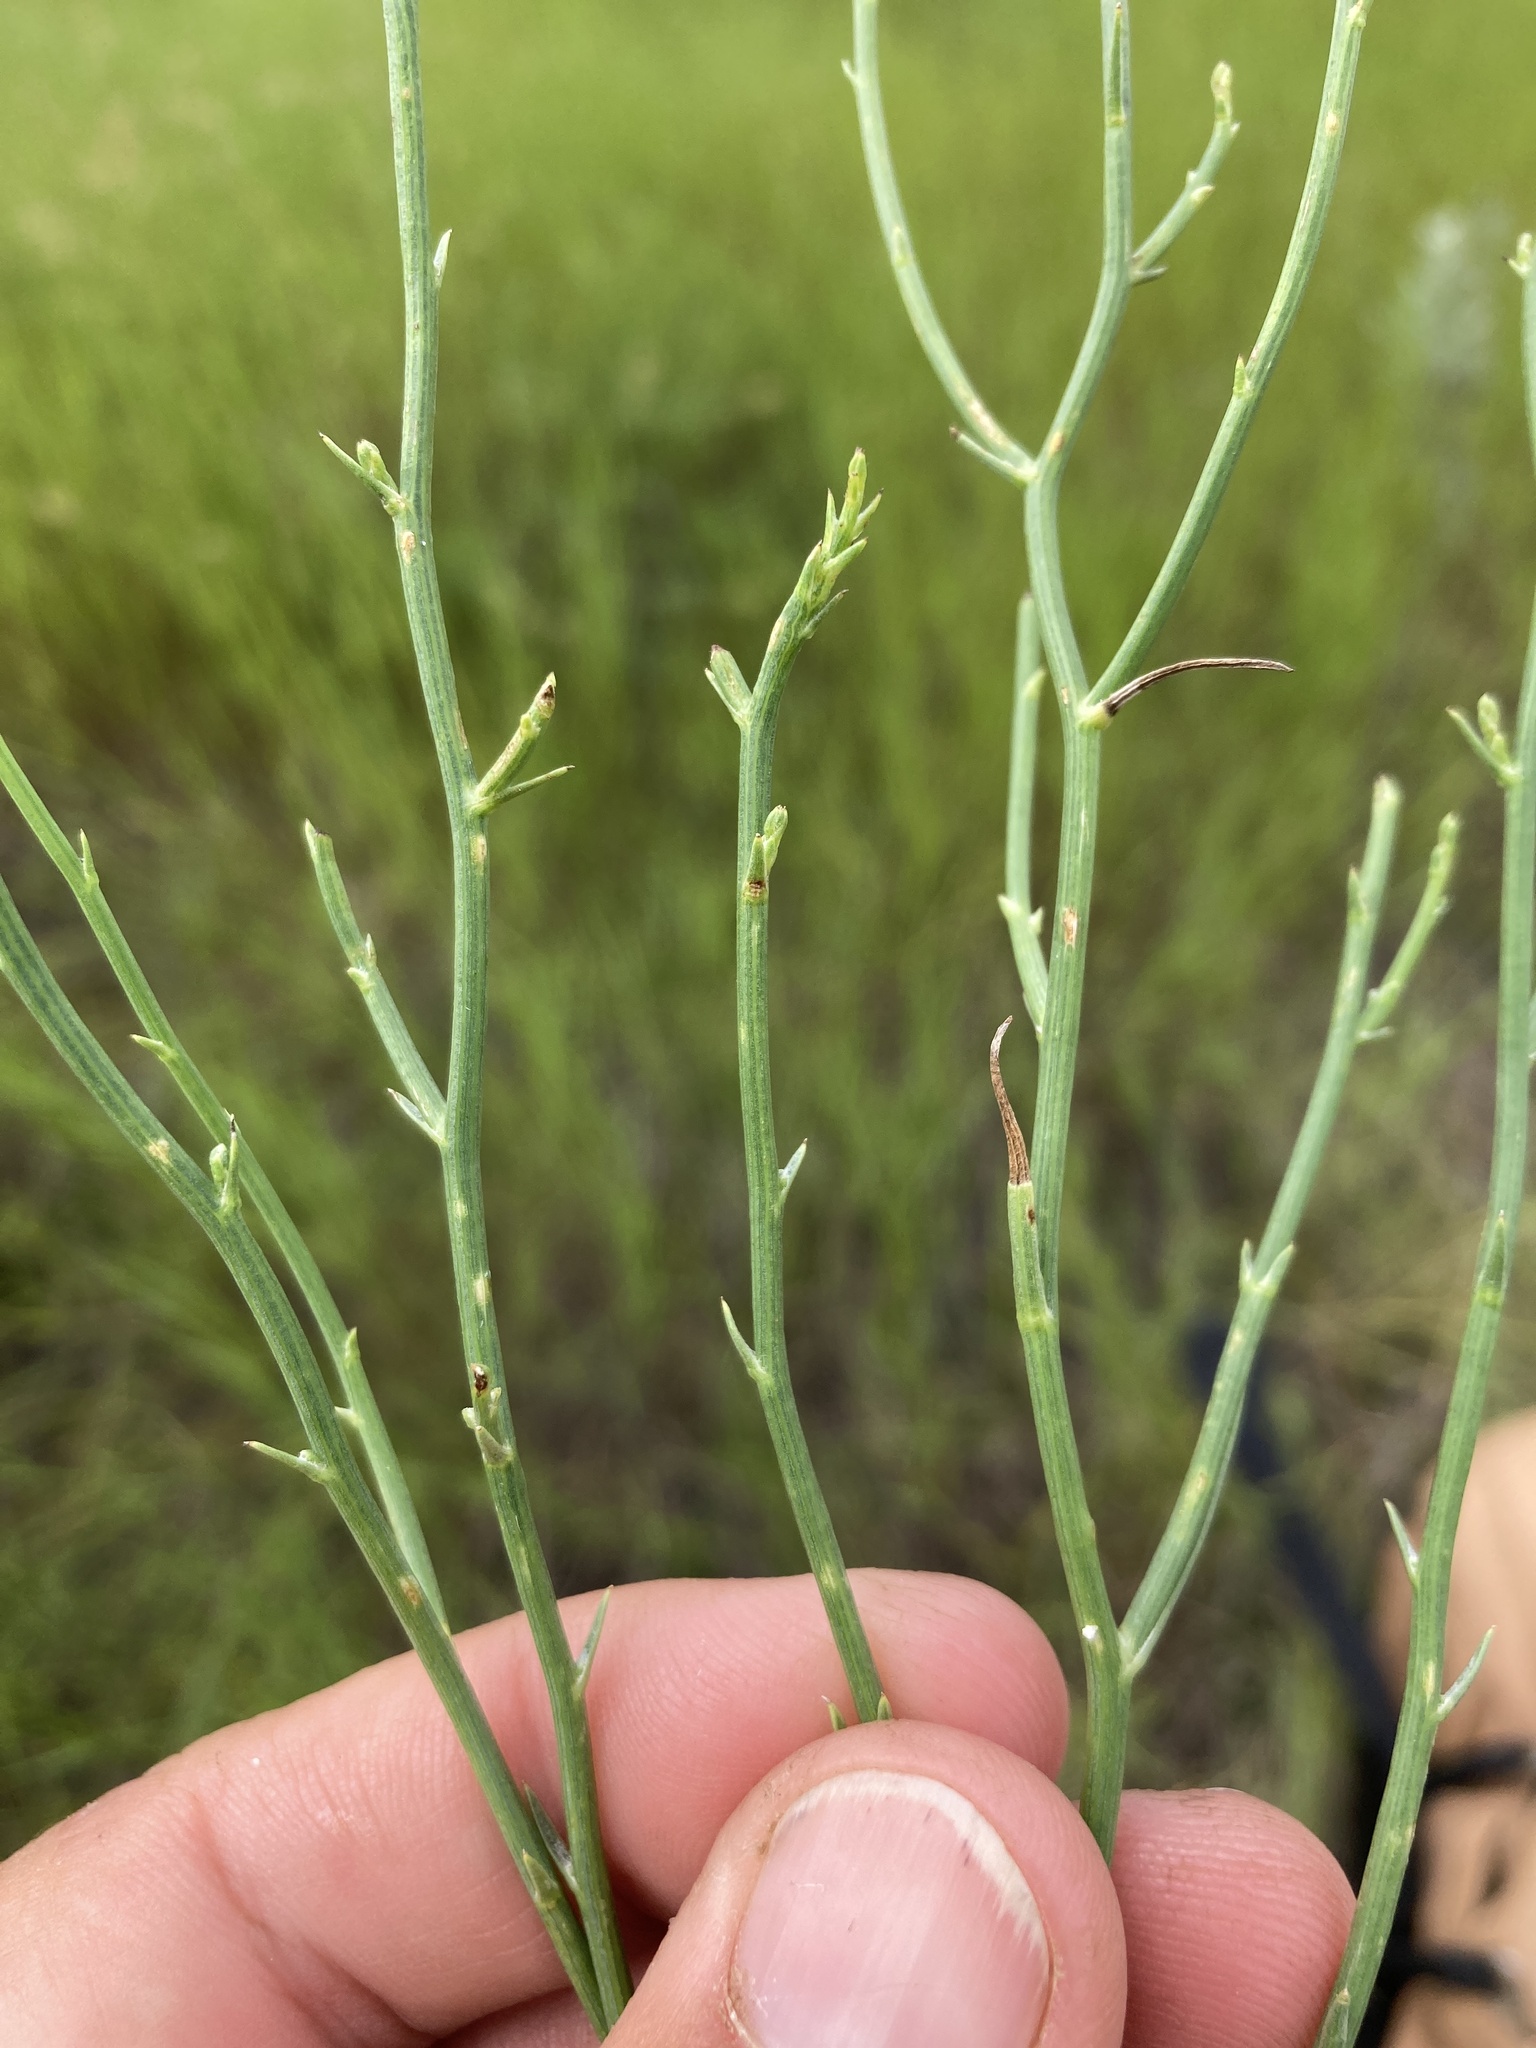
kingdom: Plantae
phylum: Tracheophyta
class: Magnoliopsida
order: Asterales
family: Asteraceae
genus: Lygodesmia
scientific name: Lygodesmia juncea
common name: Common skeletonweed
